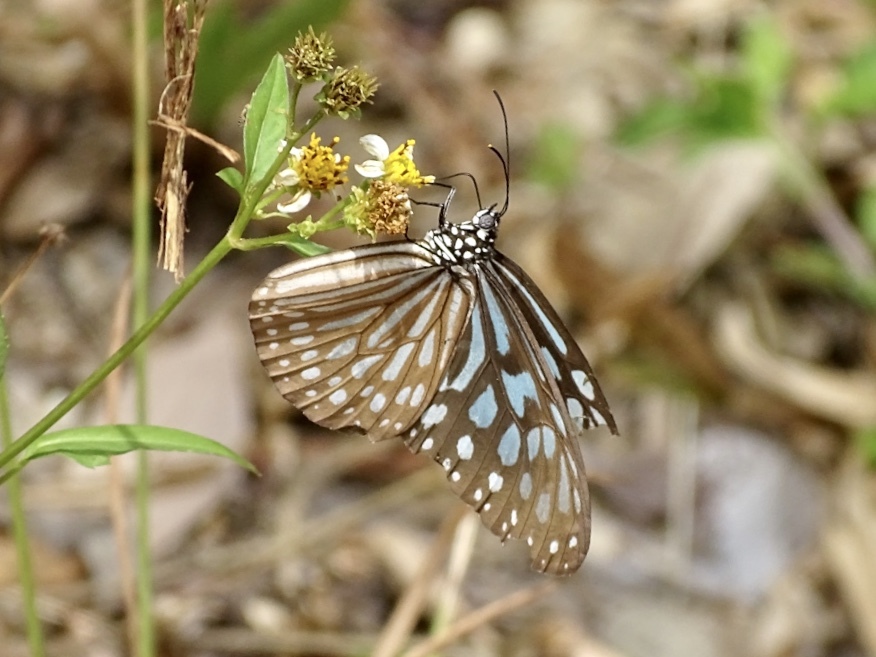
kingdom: Animalia
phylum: Arthropoda
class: Insecta
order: Lepidoptera
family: Nymphalidae
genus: Ideopsis
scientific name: Ideopsis similis
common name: Ceylon blue glassy tiger
